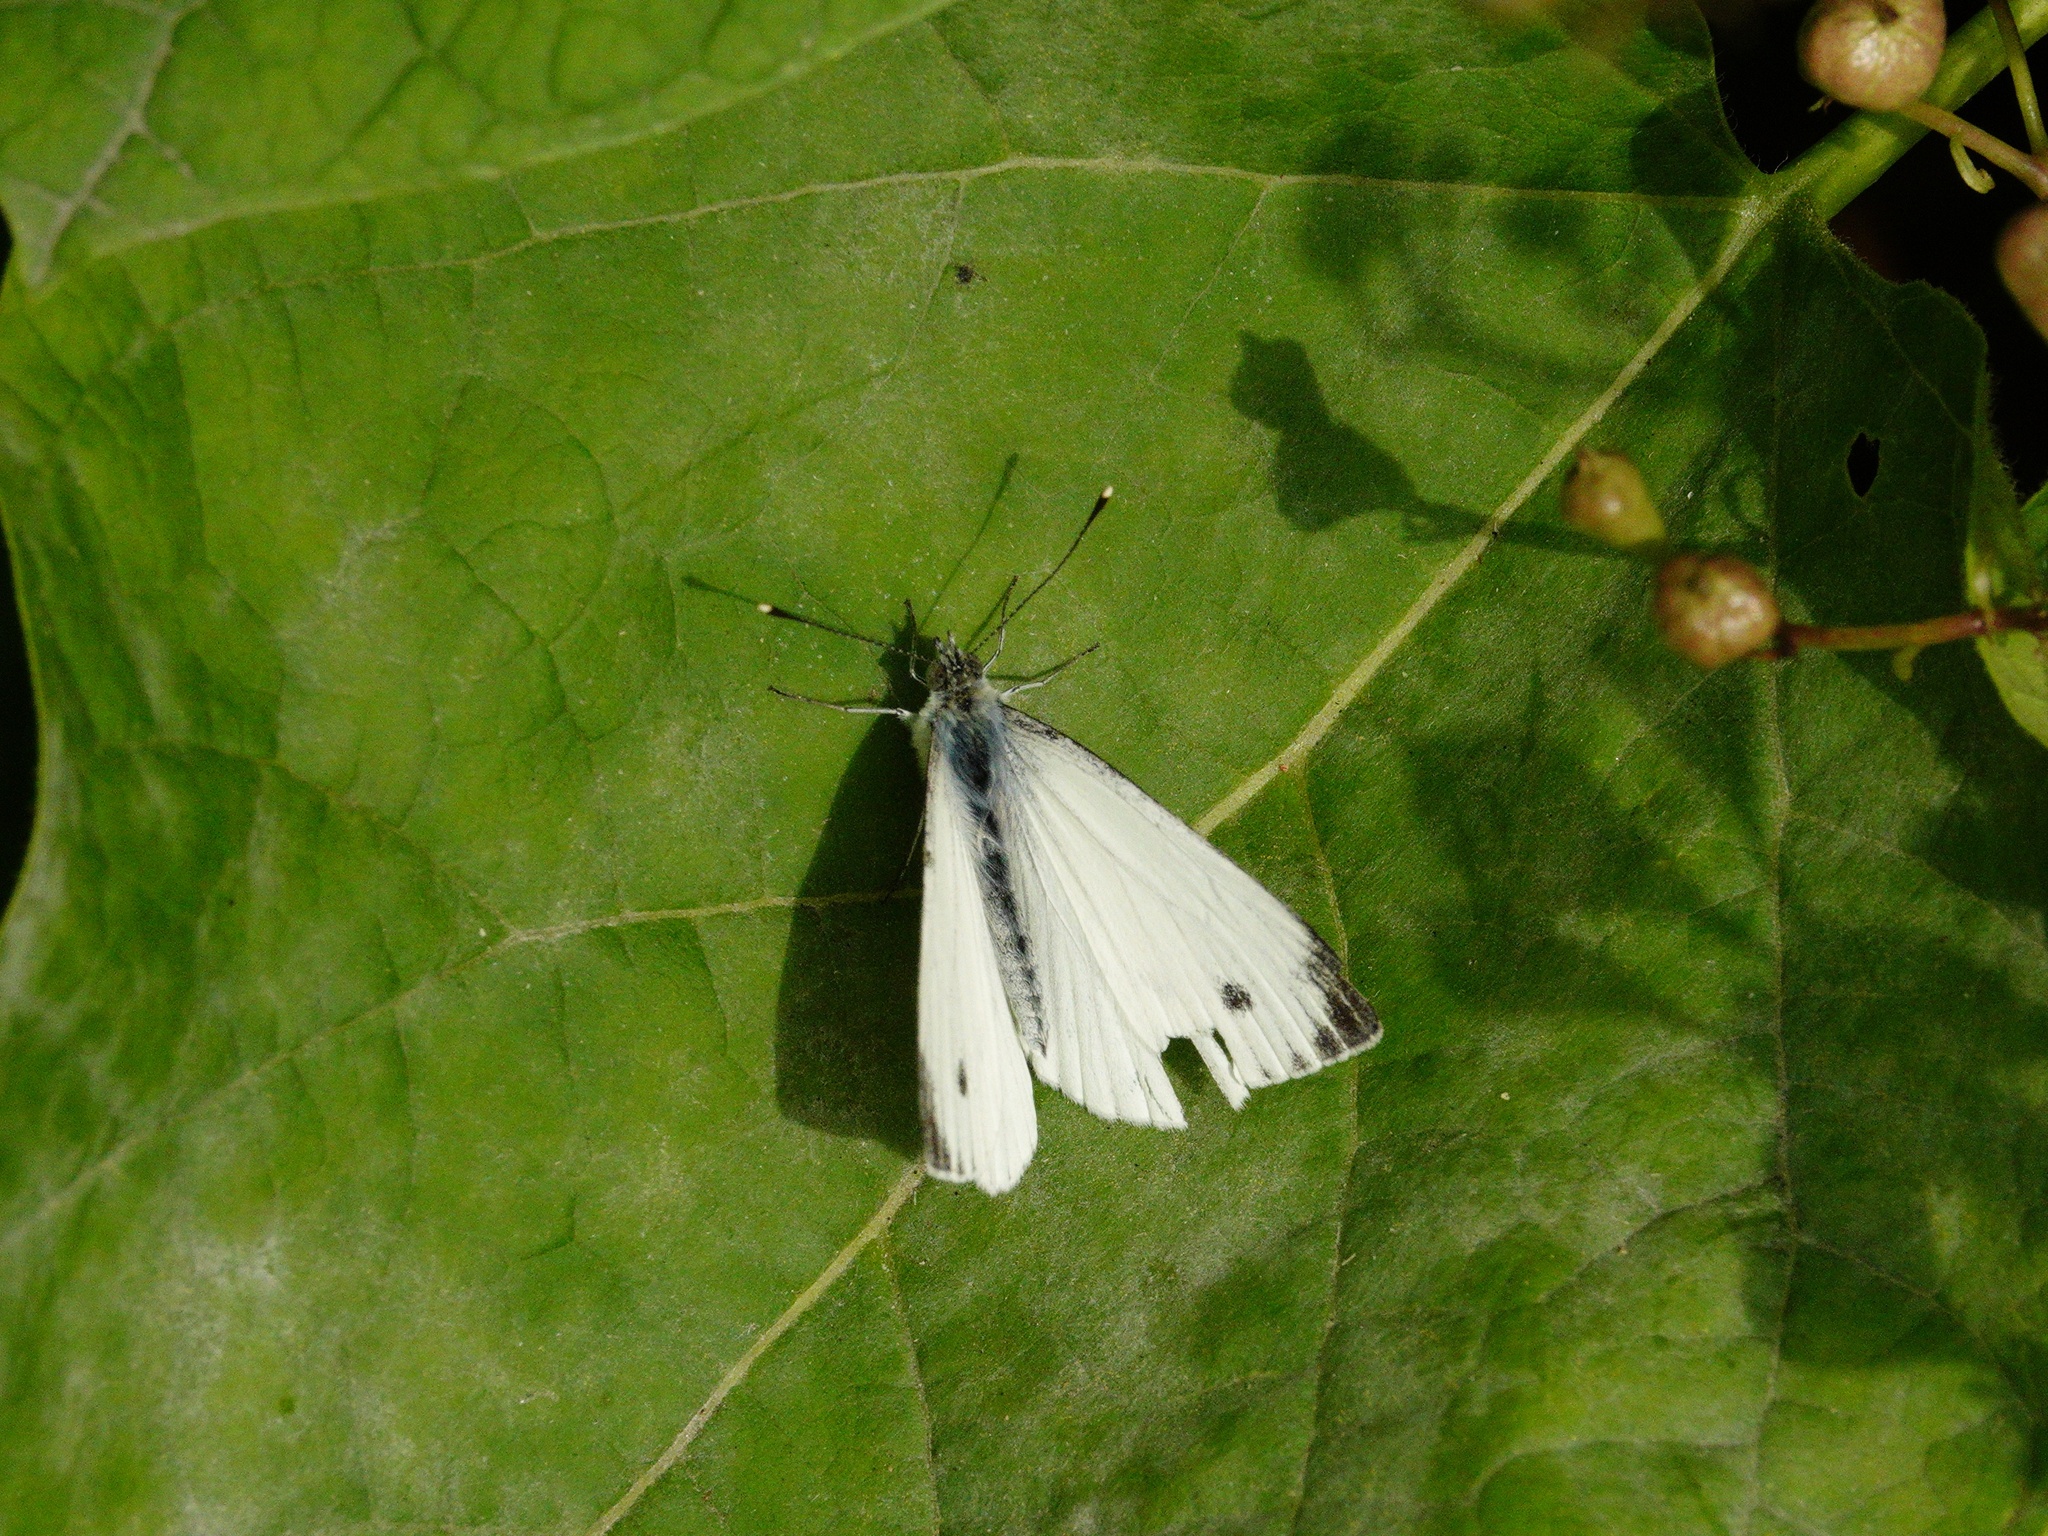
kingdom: Animalia
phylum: Arthropoda
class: Insecta
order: Lepidoptera
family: Pieridae
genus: Pieris
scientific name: Pieris napi
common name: Green-veined white
